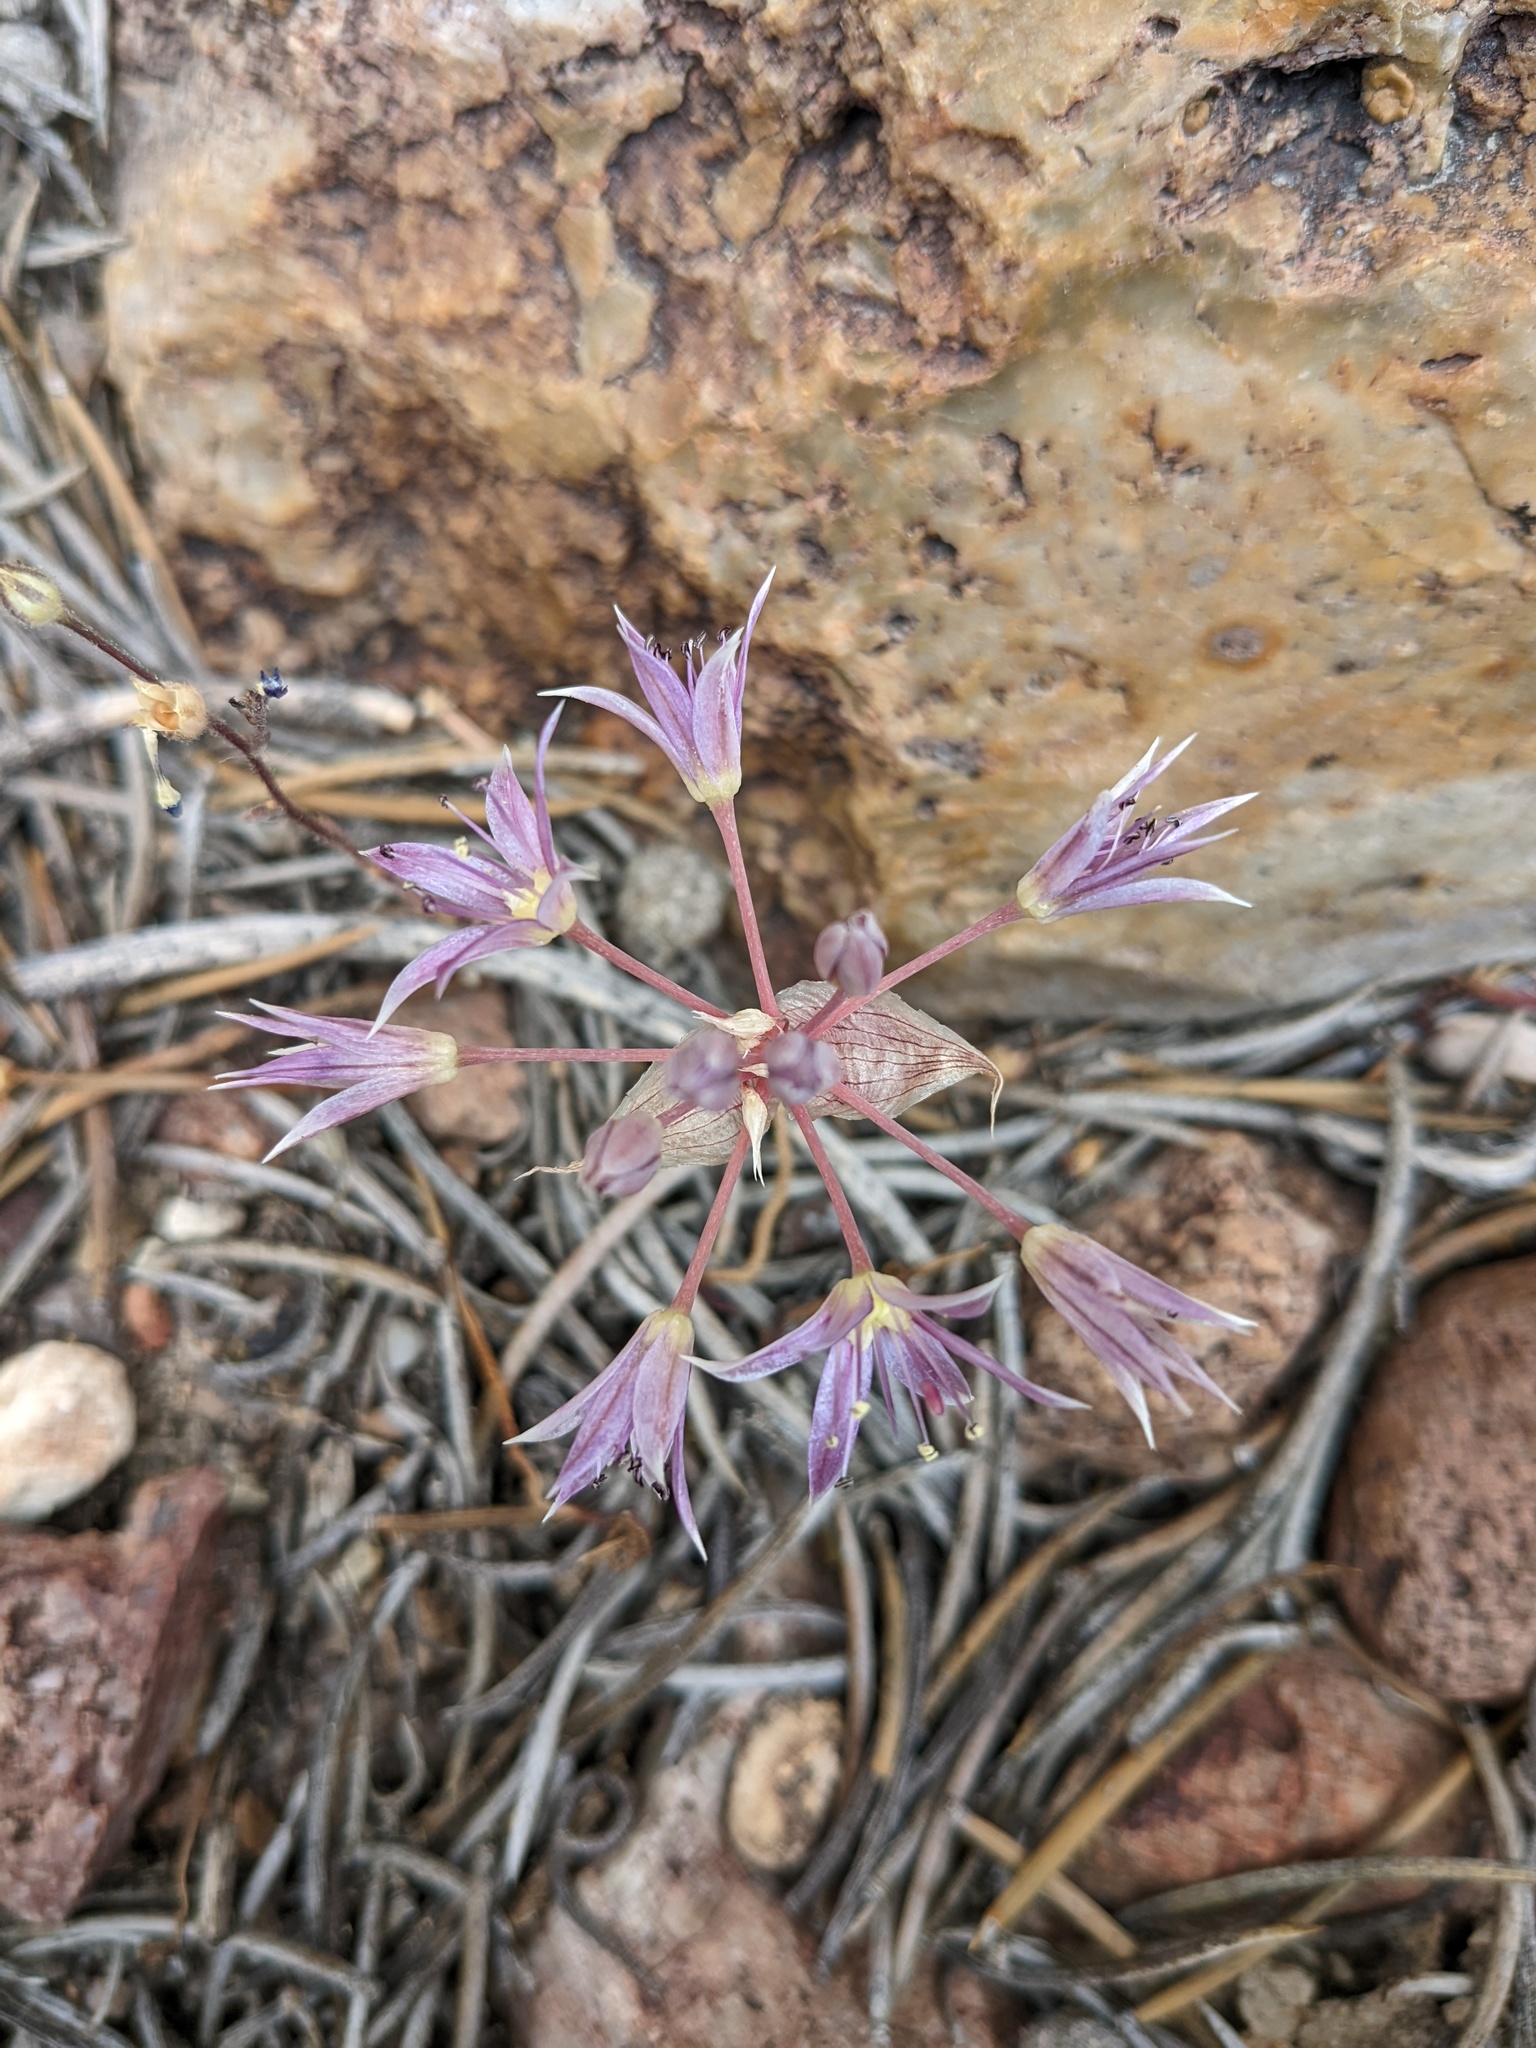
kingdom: Plantae
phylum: Tracheophyta
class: Liliopsida
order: Asparagales
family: Amaryllidaceae
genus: Allium
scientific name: Allium atrorubens
